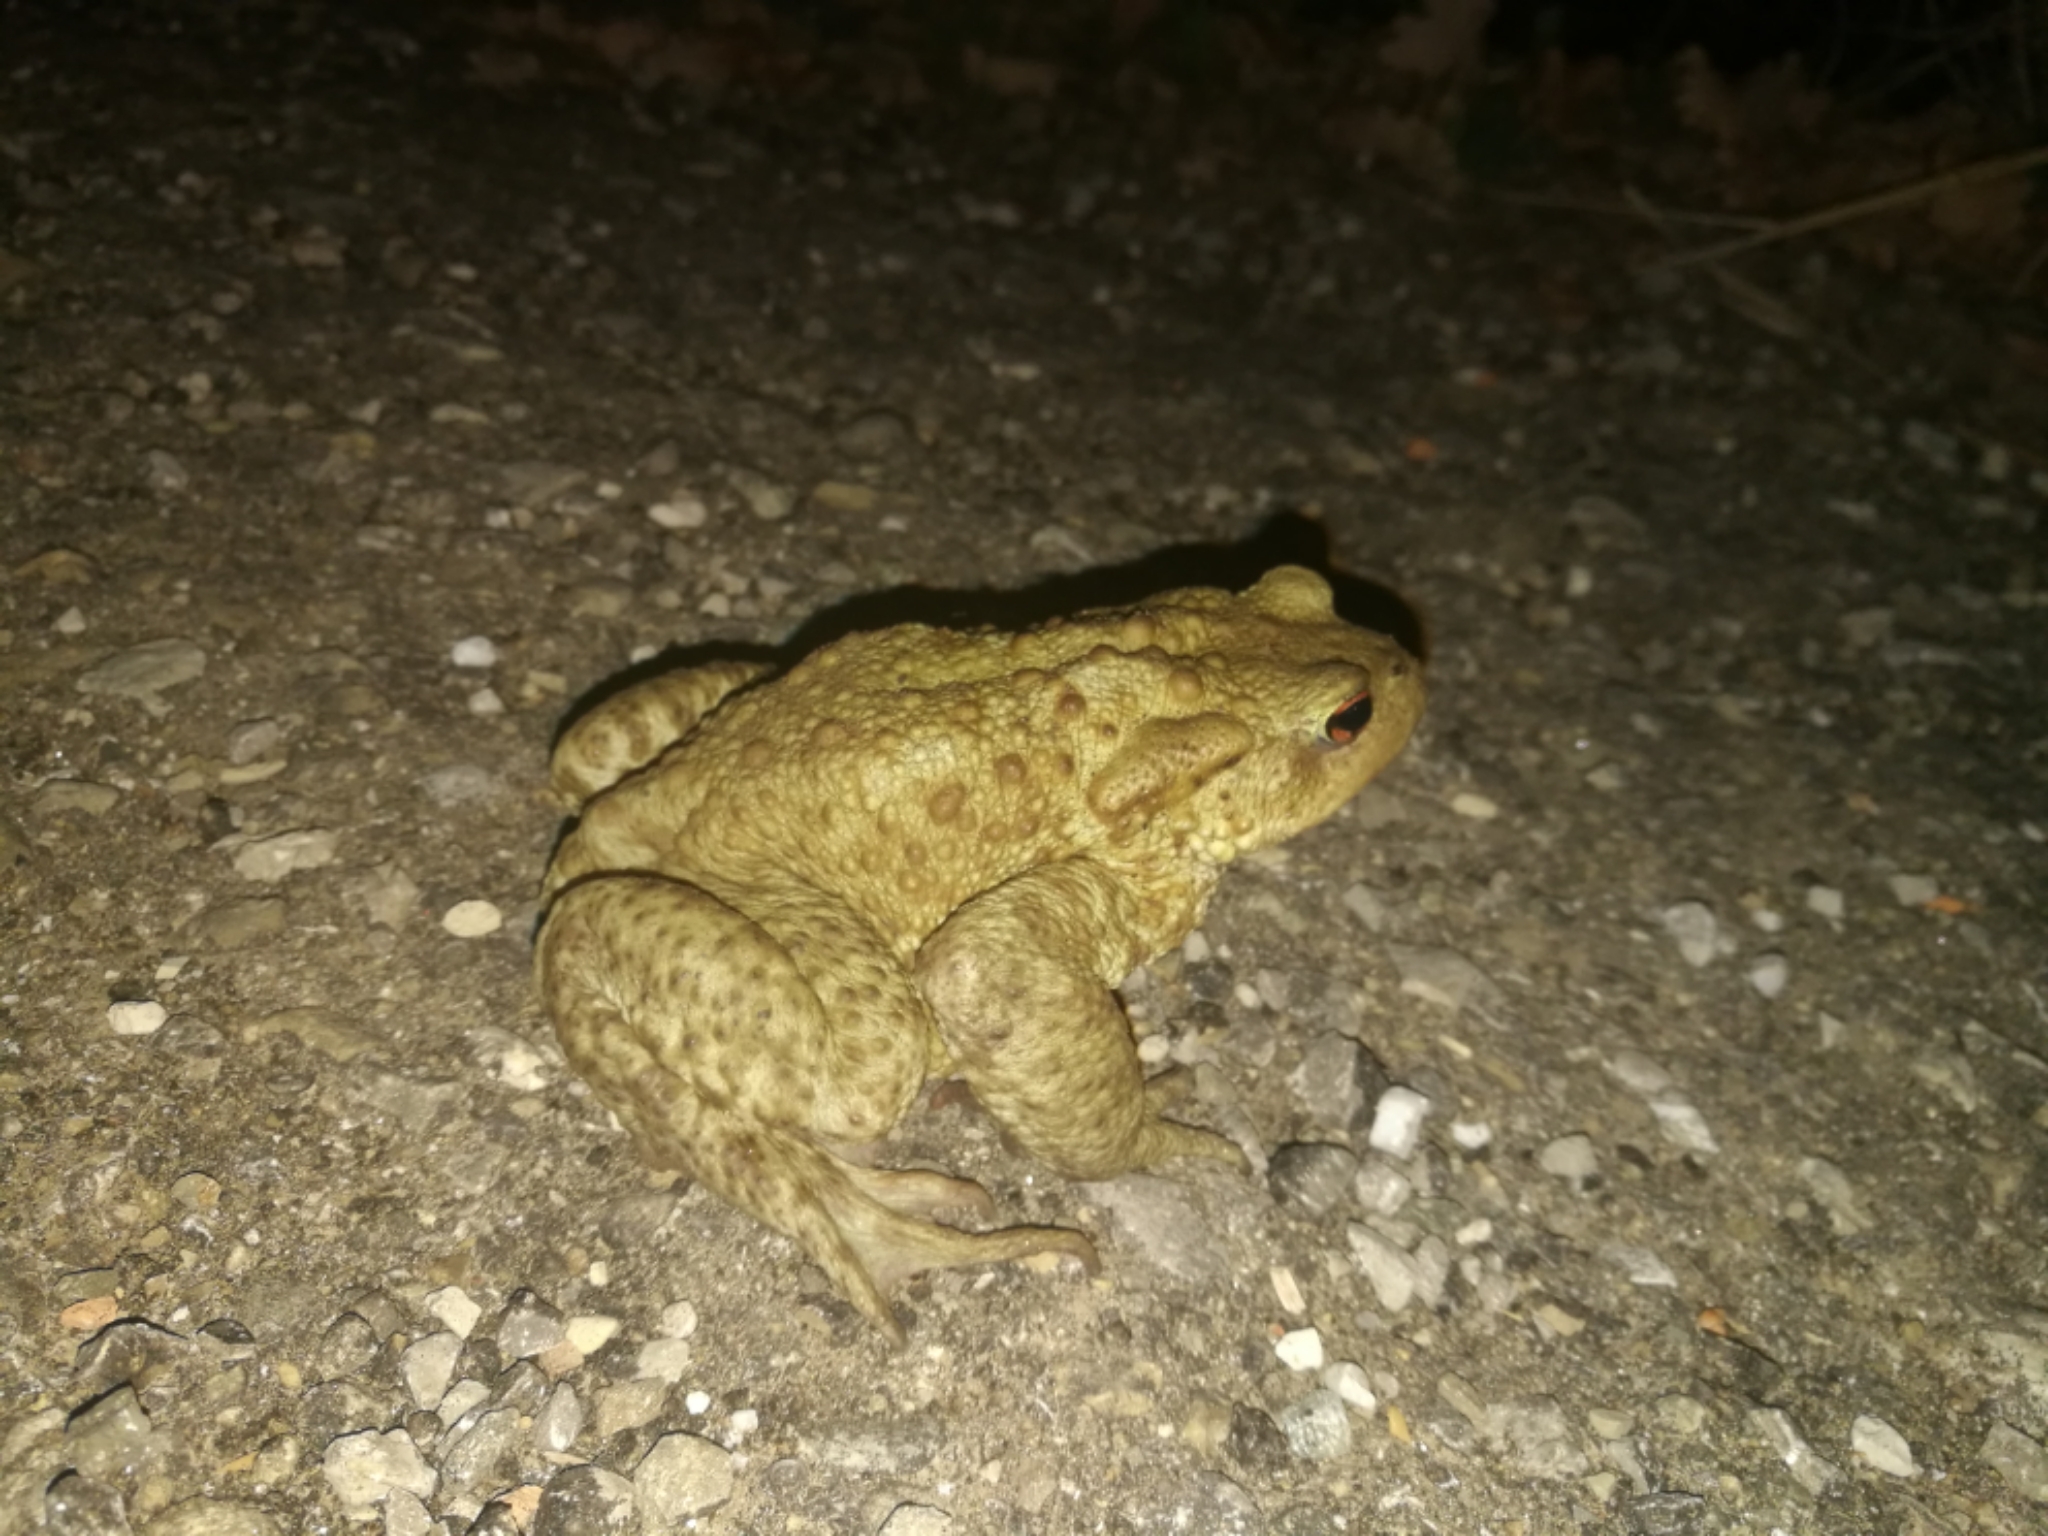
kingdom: Animalia
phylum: Chordata
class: Amphibia
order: Anura
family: Bufonidae
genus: Bufo
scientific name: Bufo bufo
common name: Common toad
